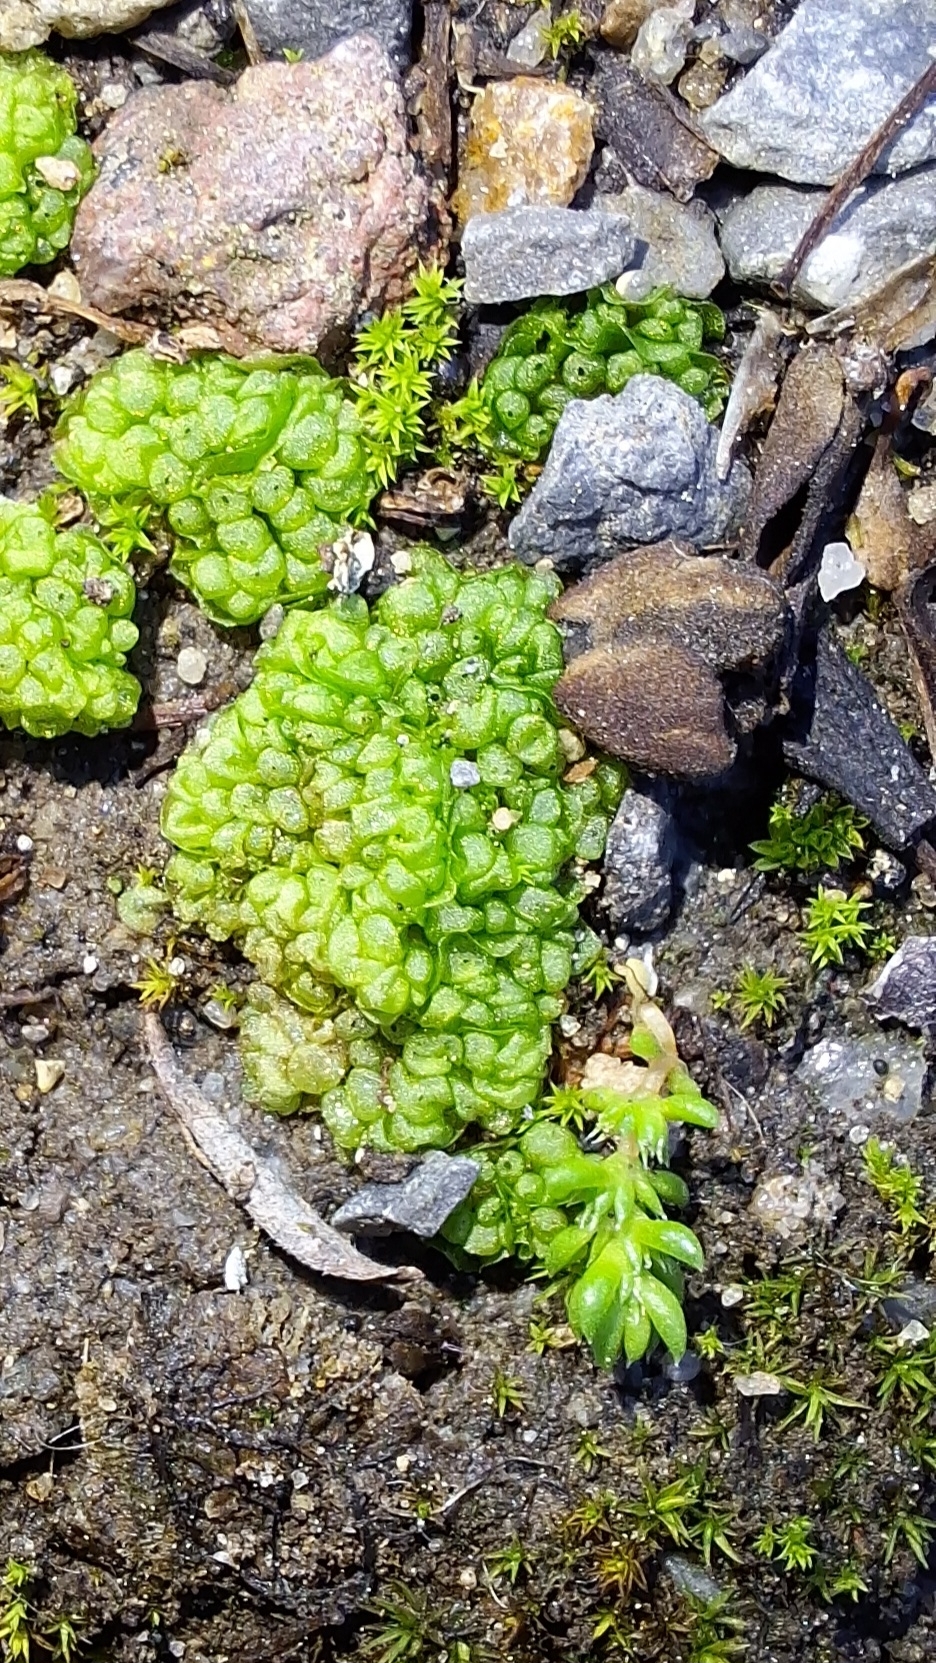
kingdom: Plantae
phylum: Marchantiophyta
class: Marchantiopsida
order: Sphaerocarpales
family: Sphaerocarpaceae
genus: Sphaerocarpos
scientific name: Sphaerocarpos texanus
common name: Texas balloonwort
